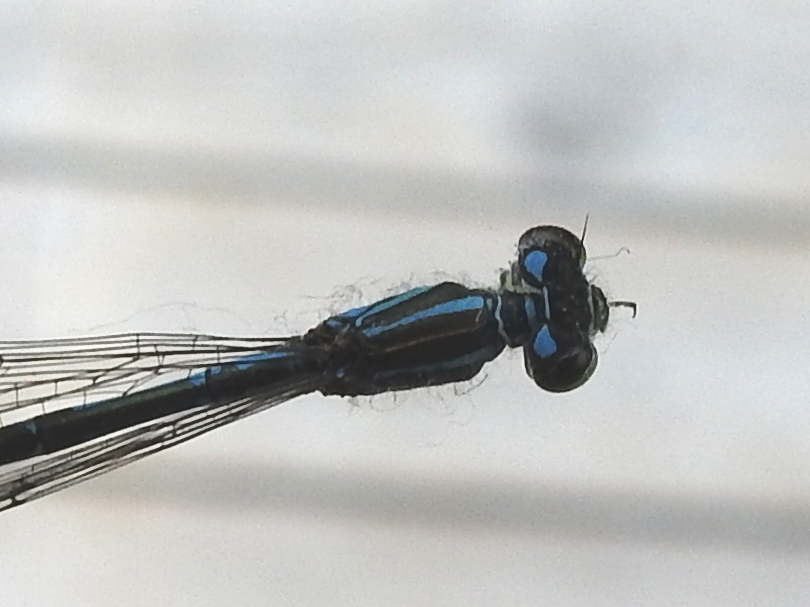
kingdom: Animalia
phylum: Arthropoda
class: Insecta
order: Odonata
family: Coenagrionidae
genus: Coenagrion
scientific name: Coenagrion johanssoni
